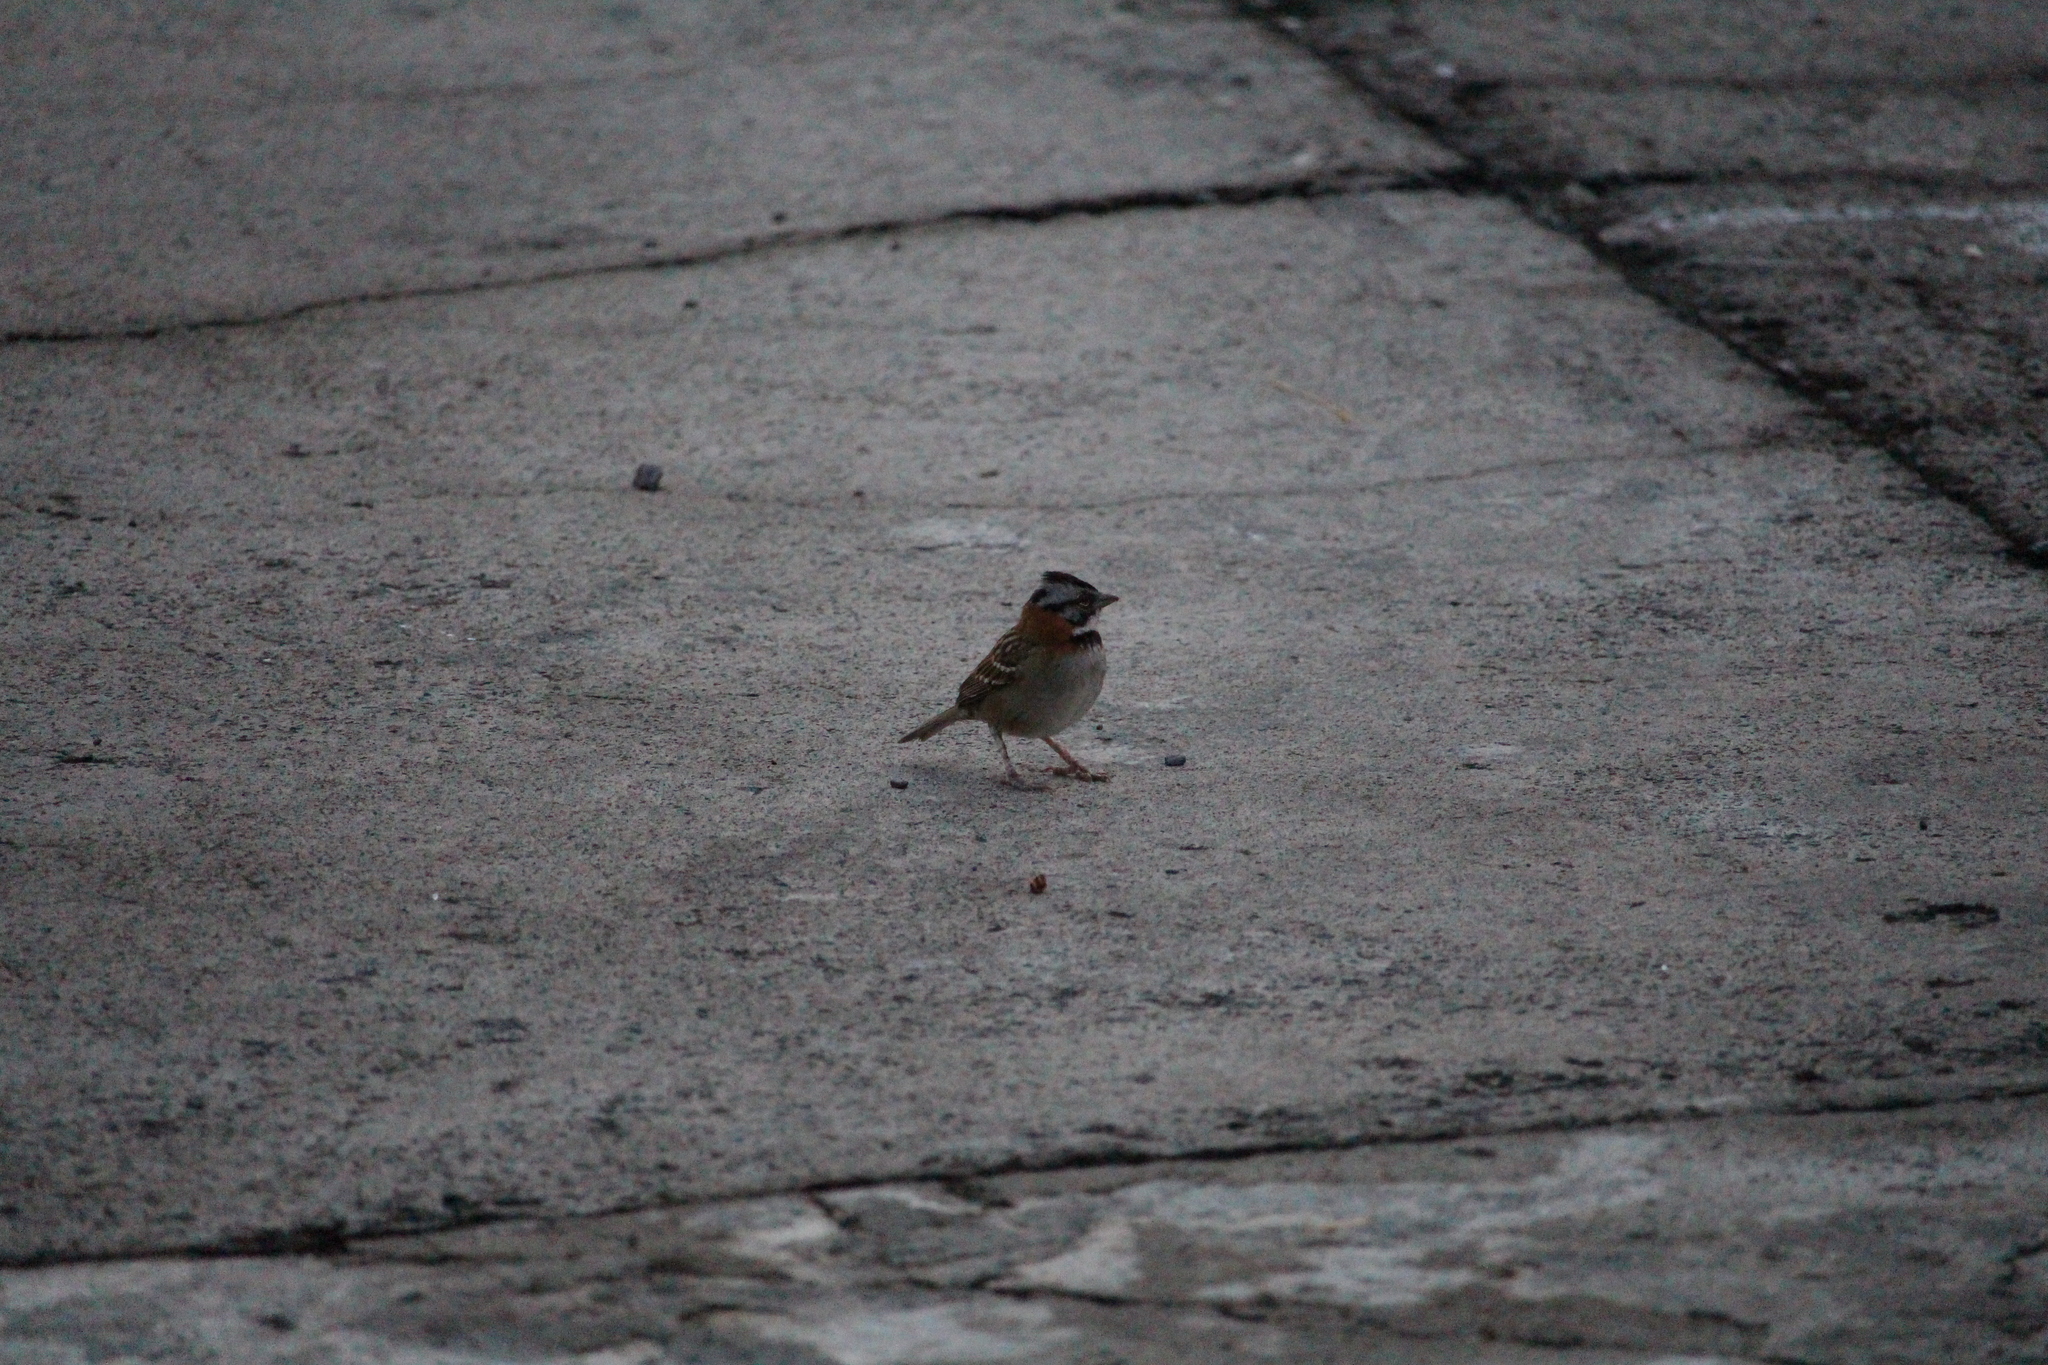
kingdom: Animalia
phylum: Chordata
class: Aves
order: Passeriformes
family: Passerellidae
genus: Zonotrichia
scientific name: Zonotrichia capensis
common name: Rufous-collared sparrow
